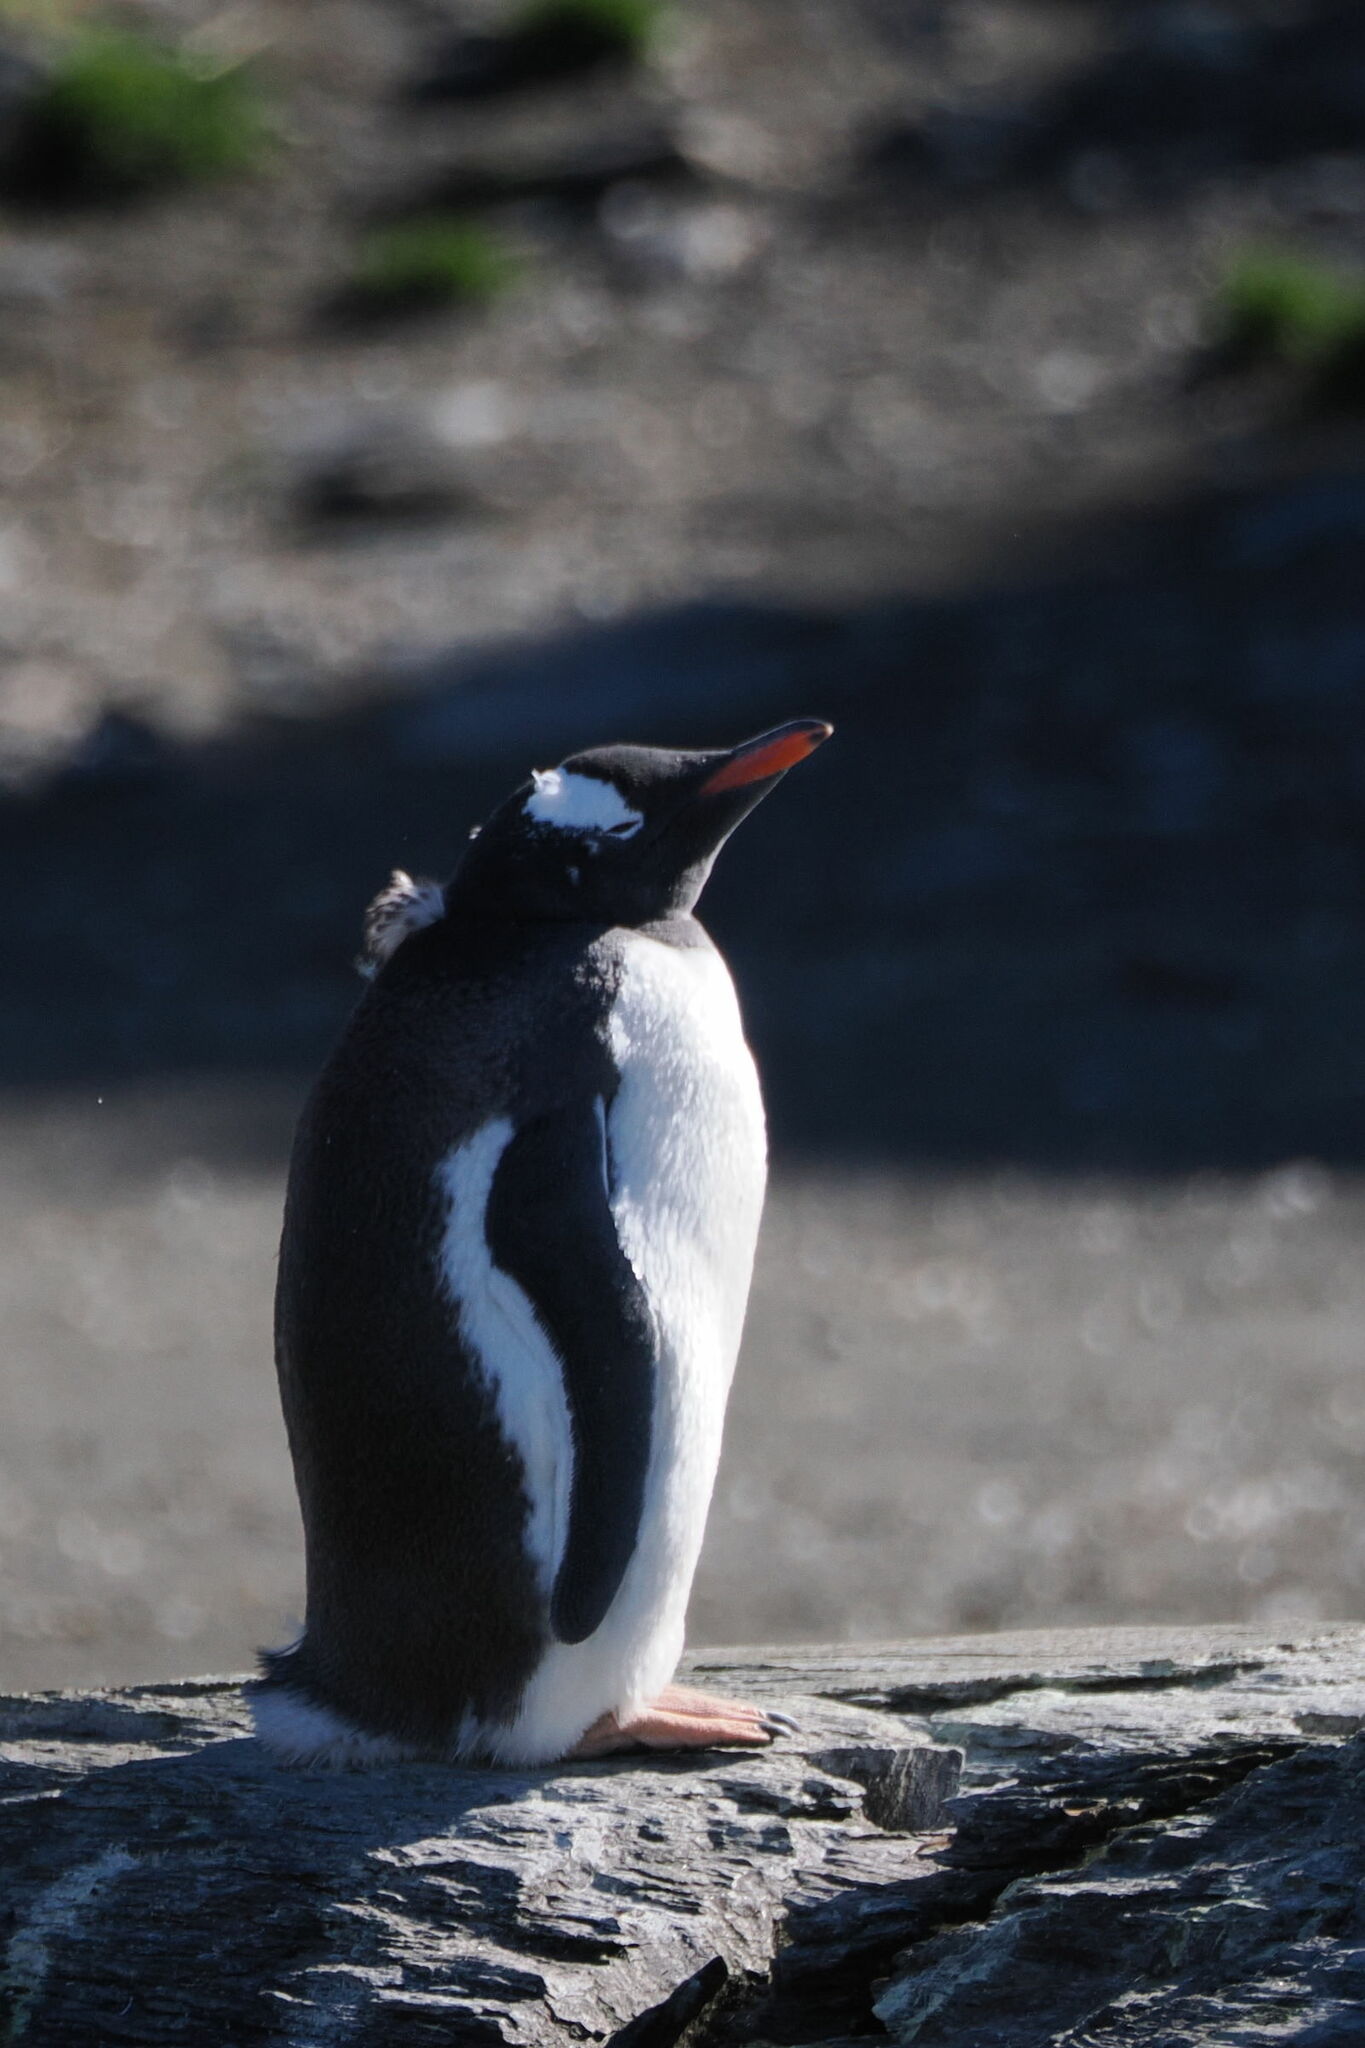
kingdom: Animalia
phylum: Chordata
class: Aves
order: Sphenisciformes
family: Spheniscidae
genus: Pygoscelis
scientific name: Pygoscelis papua
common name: Gentoo penguin
